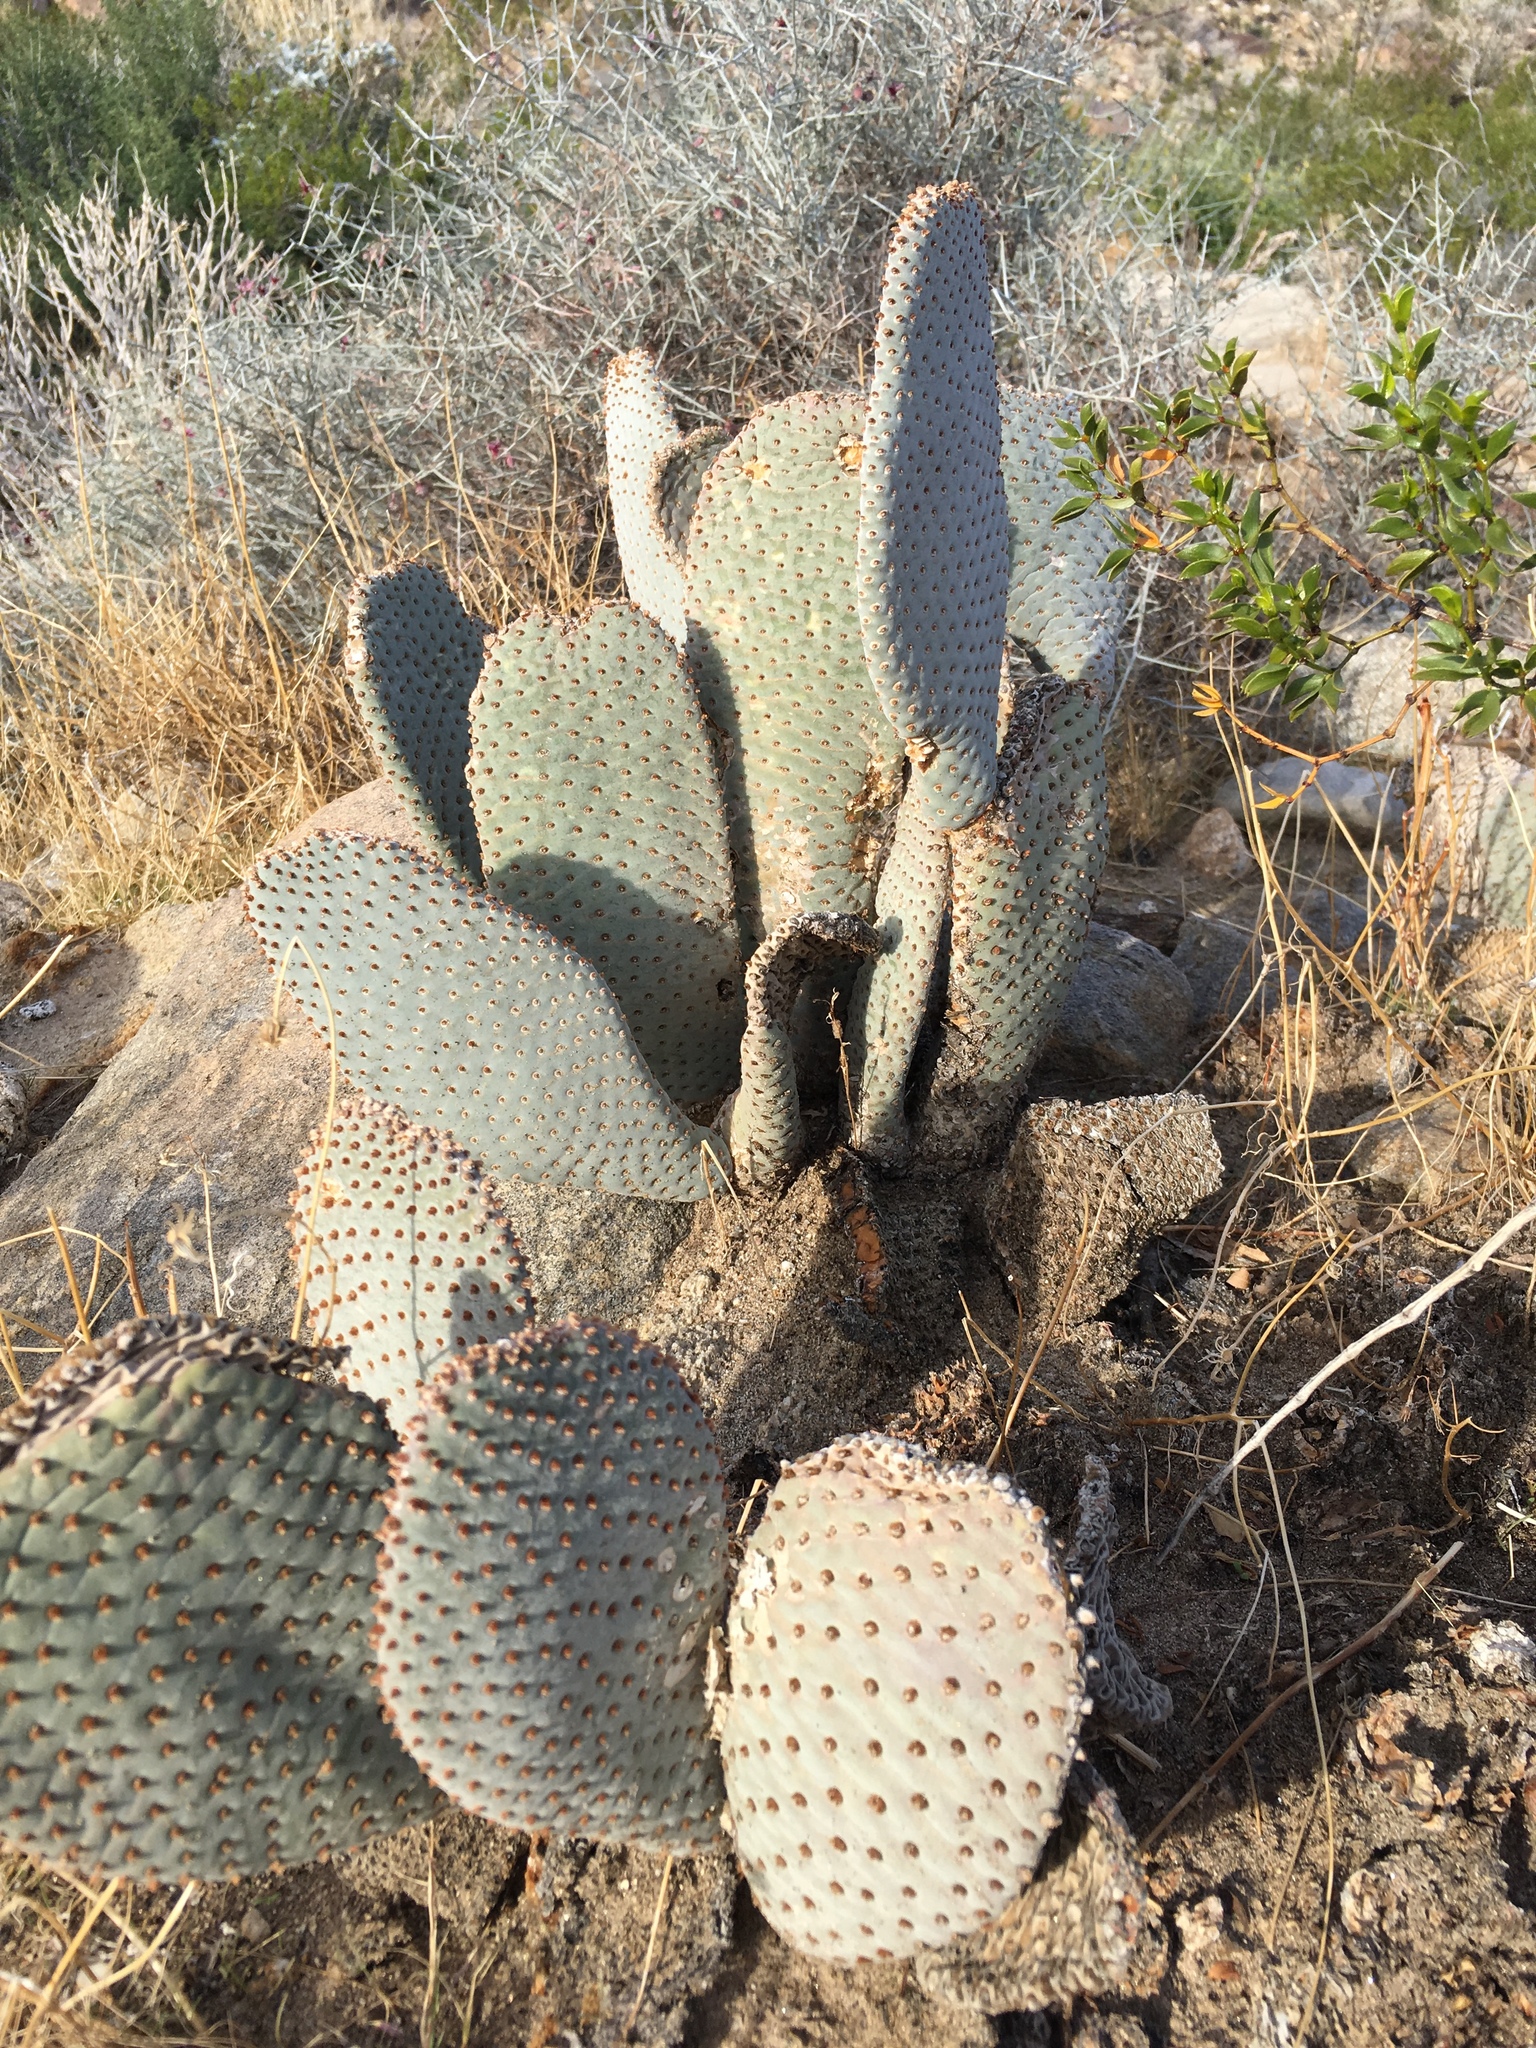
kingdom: Plantae
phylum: Tracheophyta
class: Magnoliopsida
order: Caryophyllales
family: Cactaceae
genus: Opuntia
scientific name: Opuntia basilaris
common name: Beavertail prickly-pear
